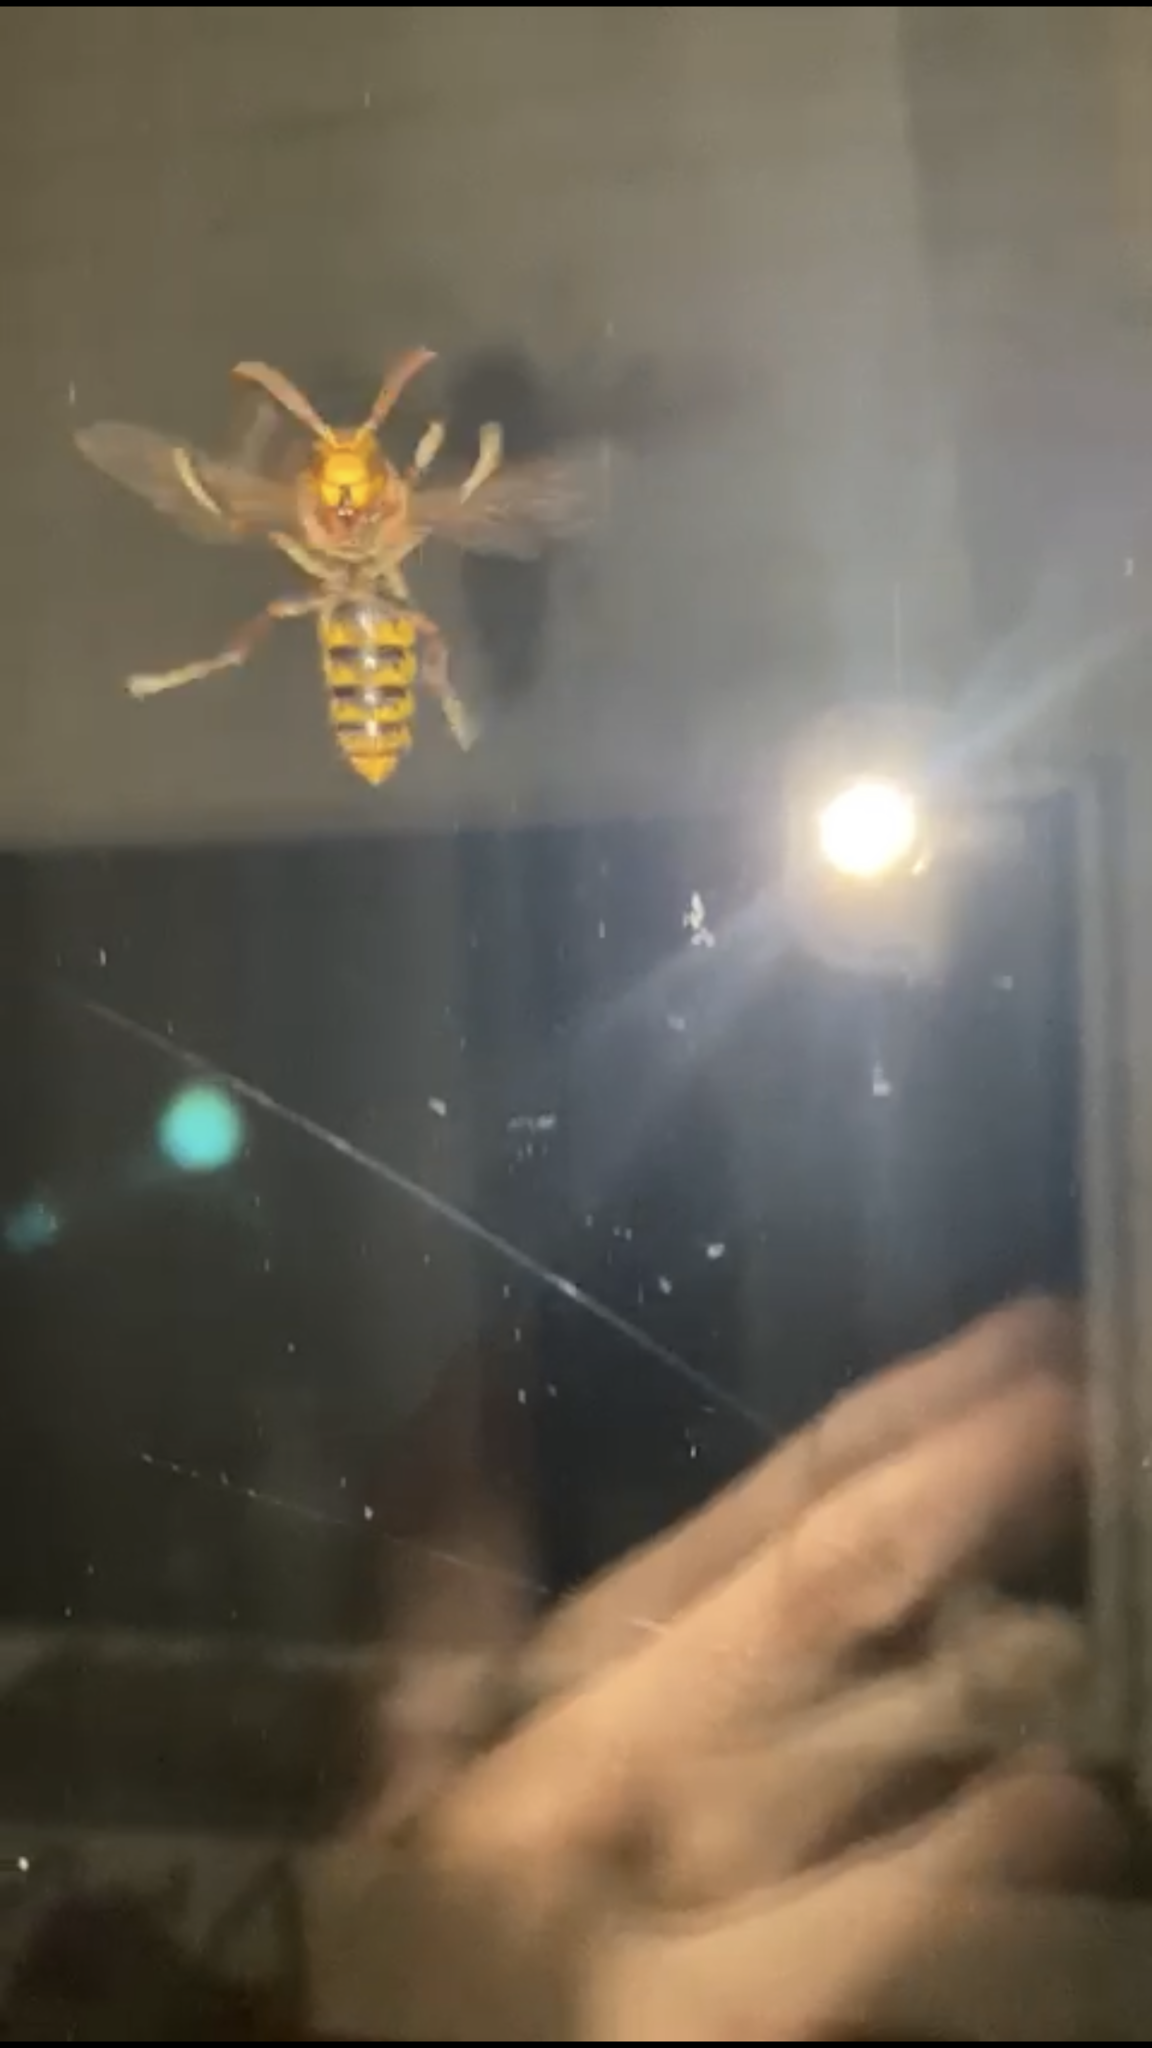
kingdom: Animalia
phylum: Arthropoda
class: Insecta
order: Hymenoptera
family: Vespidae
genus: Vespa
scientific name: Vespa crabro
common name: Hornet
